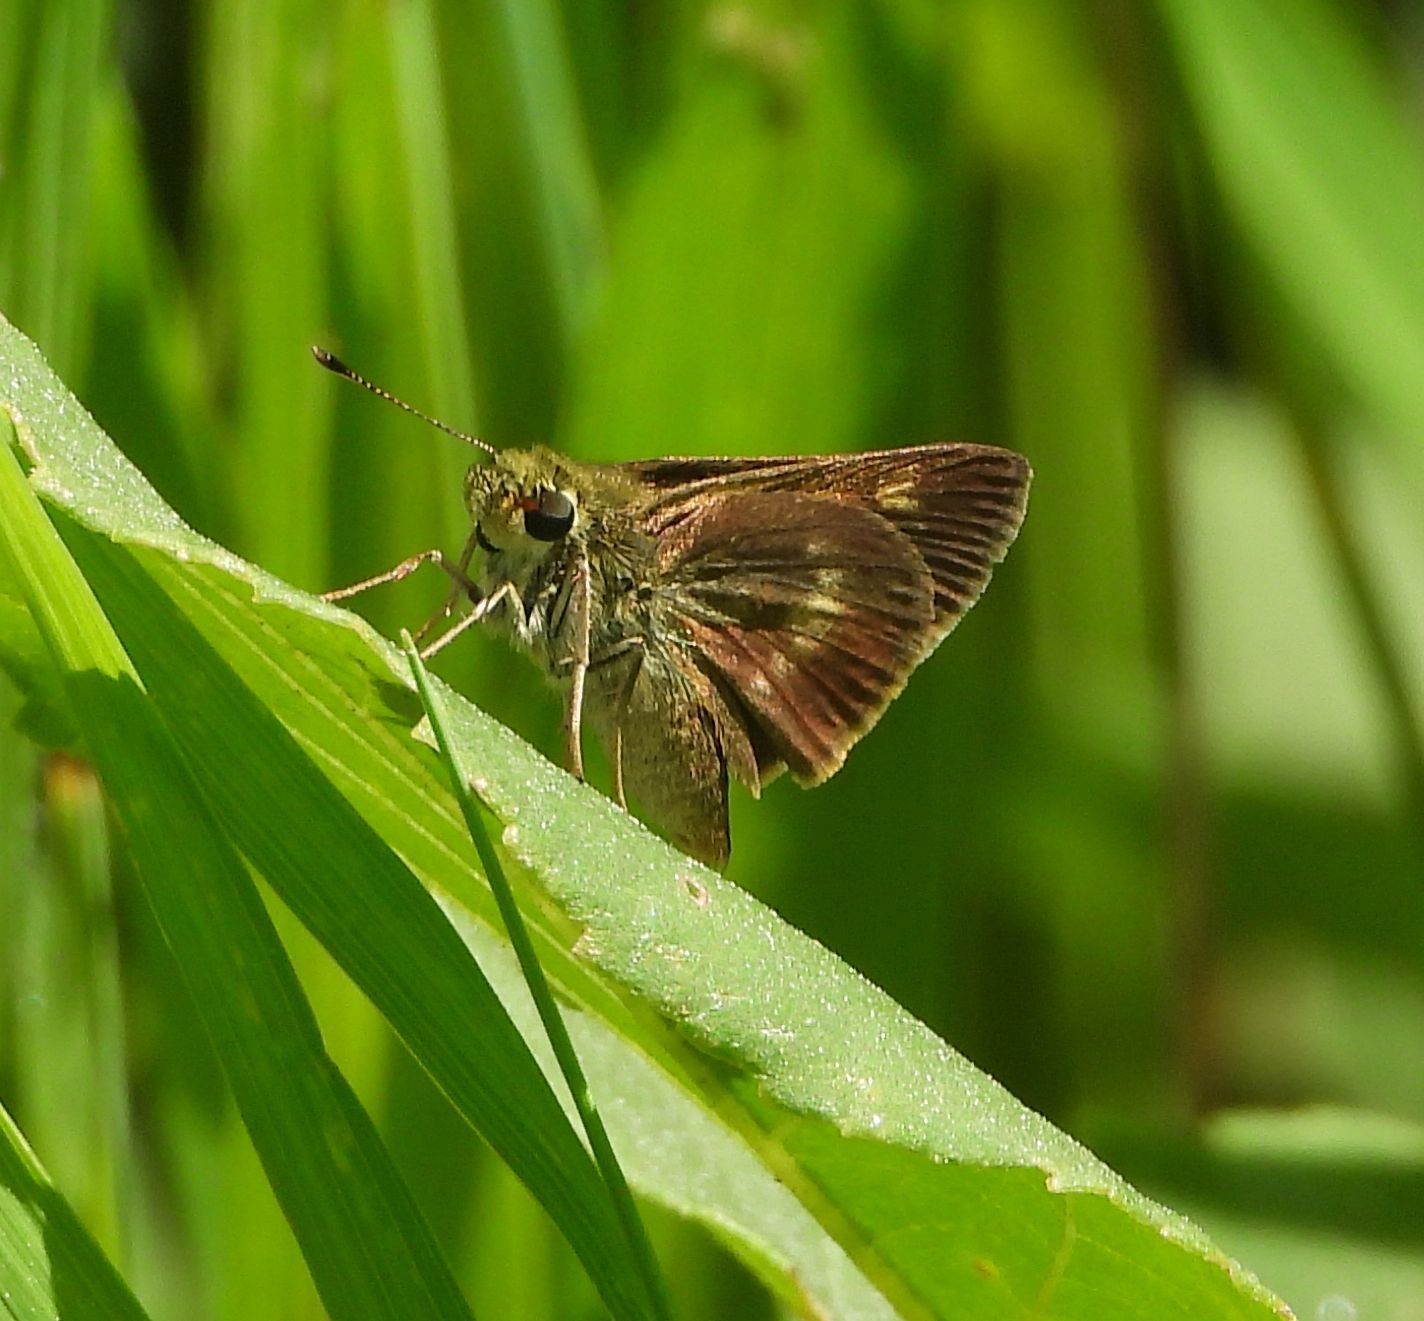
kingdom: Animalia
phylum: Arthropoda
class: Insecta
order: Lepidoptera
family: Hesperiidae
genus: Polites
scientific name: Polites egeremet
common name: Northern broken-dash
